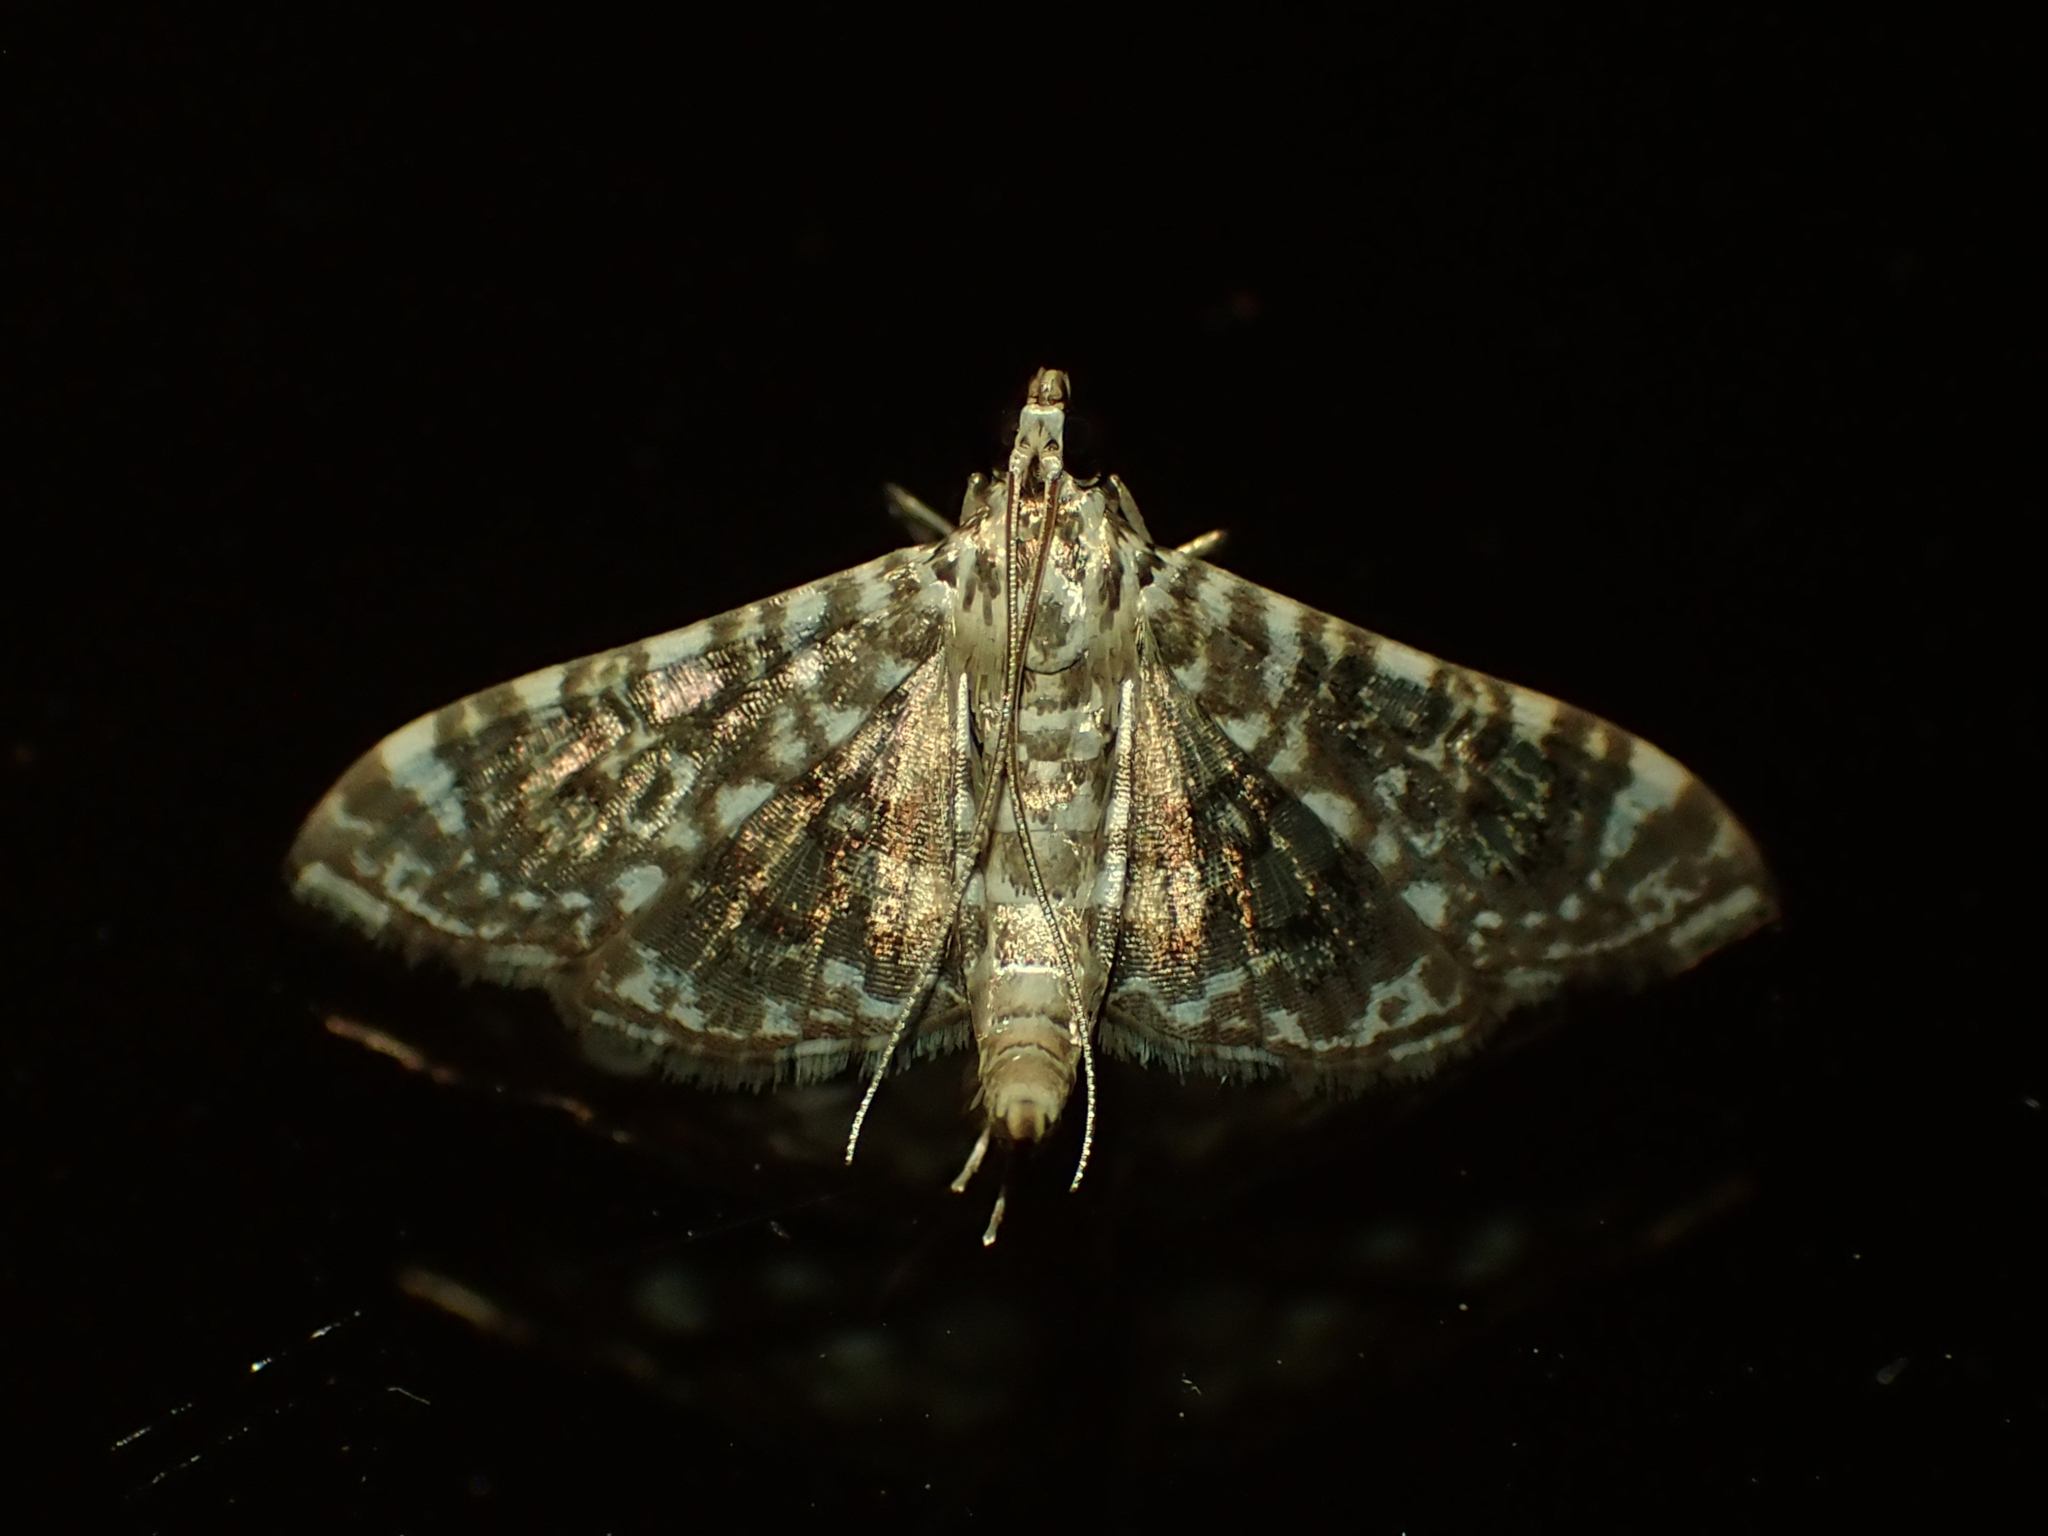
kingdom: Animalia
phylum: Arthropoda
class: Insecta
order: Lepidoptera
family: Crambidae
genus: Glyphodes
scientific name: Glyphodes onychinalis
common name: Swan plant moth
